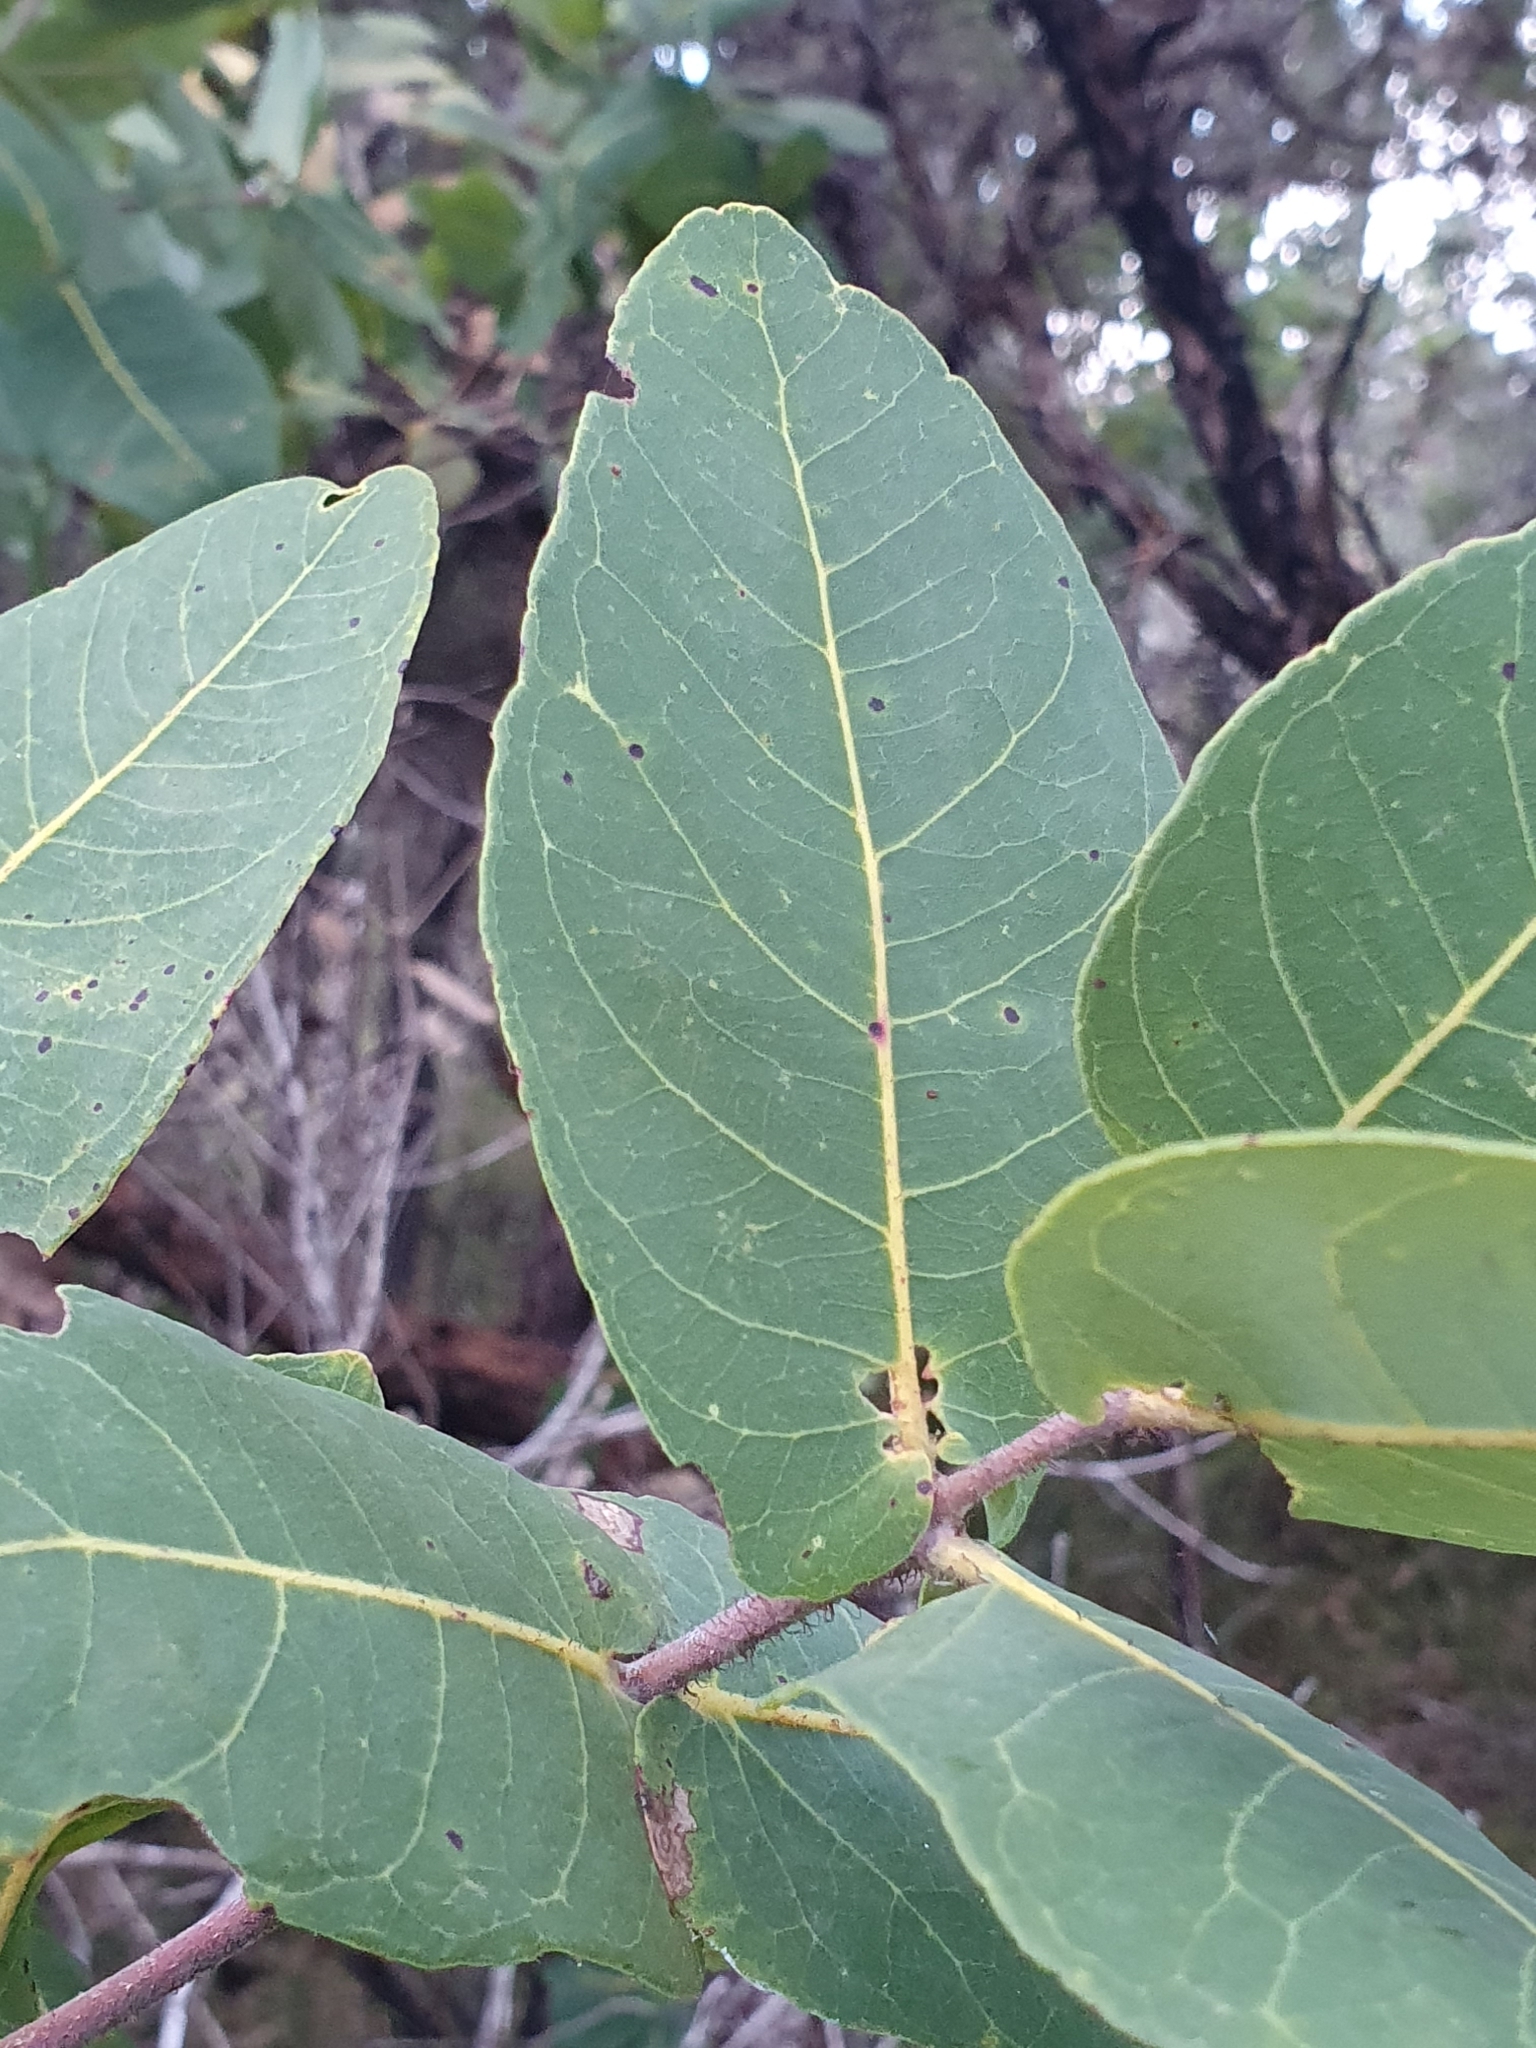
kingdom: Plantae
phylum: Tracheophyta
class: Magnoliopsida
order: Myrtales
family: Myrtaceae
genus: Angophora
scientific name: Angophora hispida
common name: Dwarf-apple
